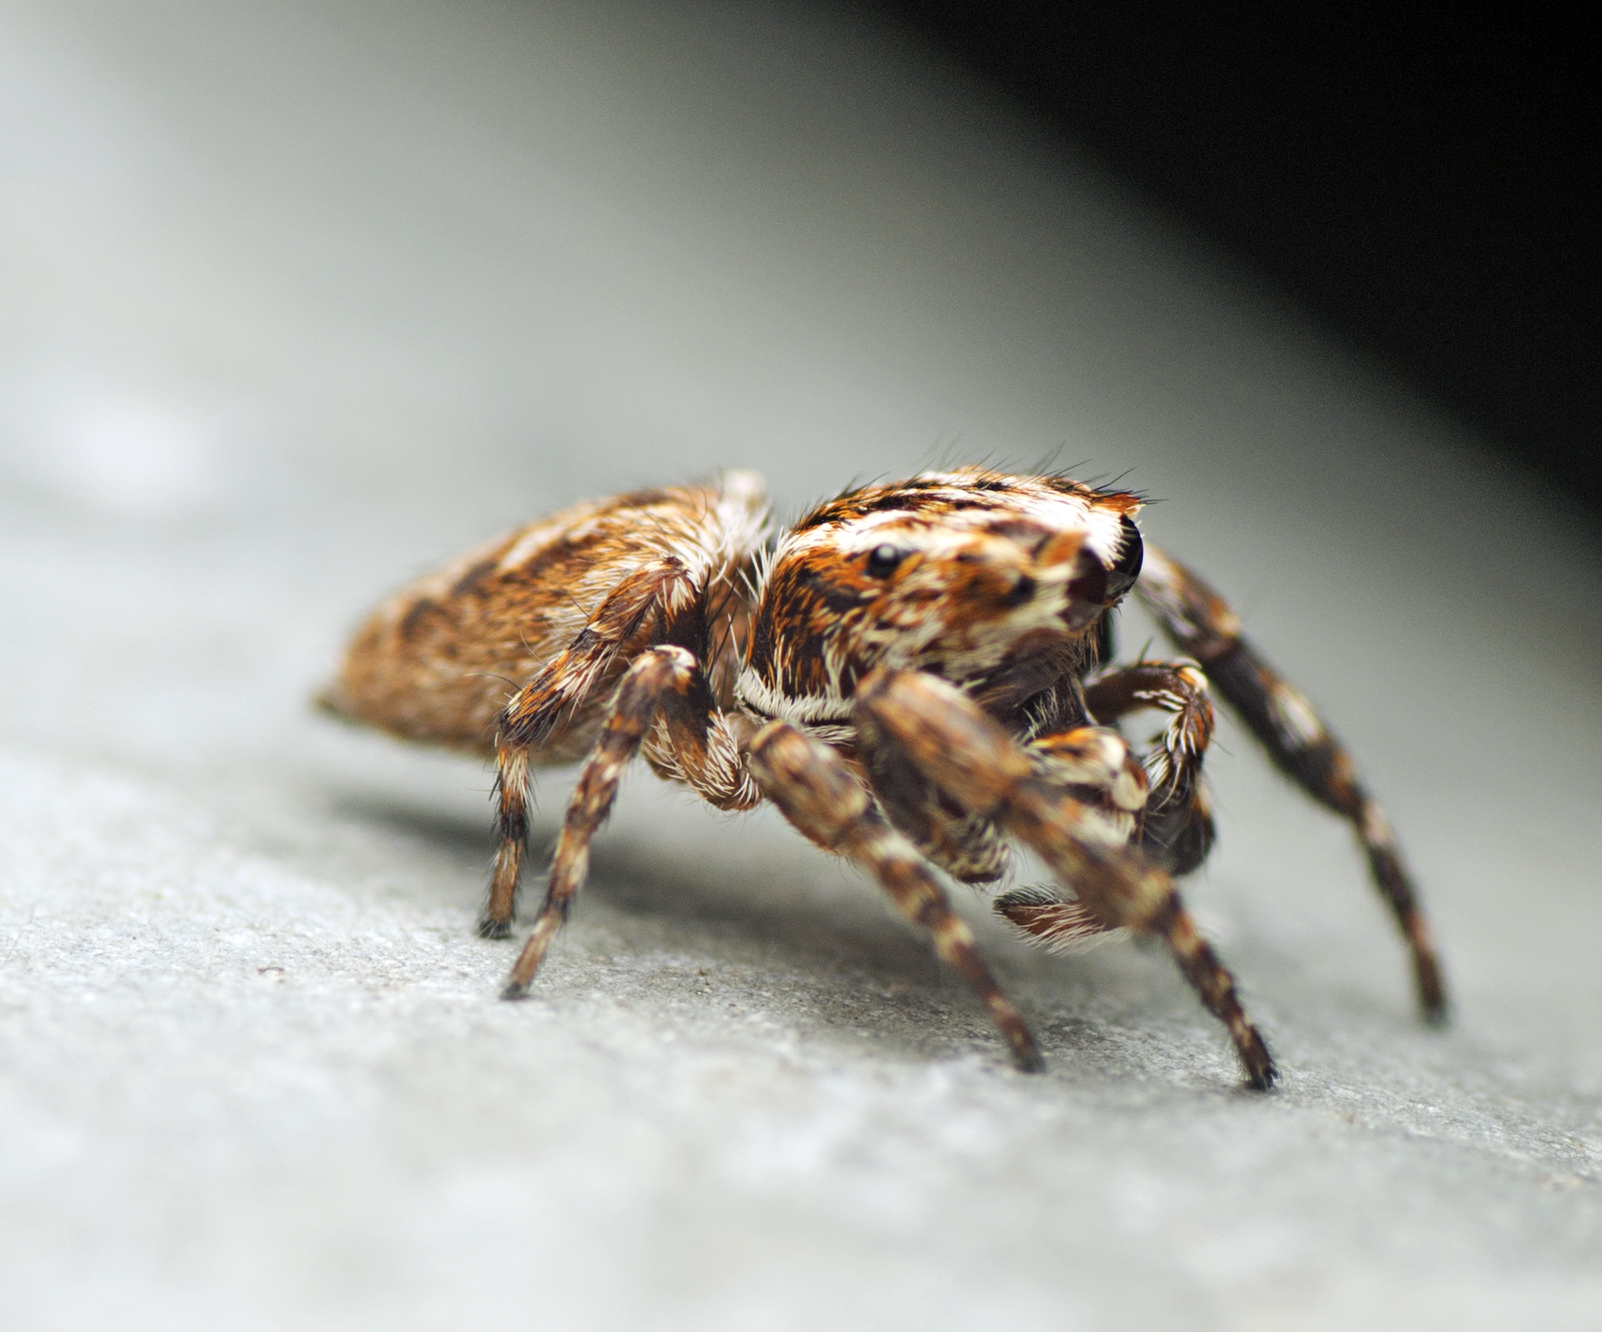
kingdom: Animalia
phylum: Arthropoda
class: Arachnida
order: Araneae
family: Salticidae
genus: Paraphilaeus
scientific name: Paraphilaeus daemeli
